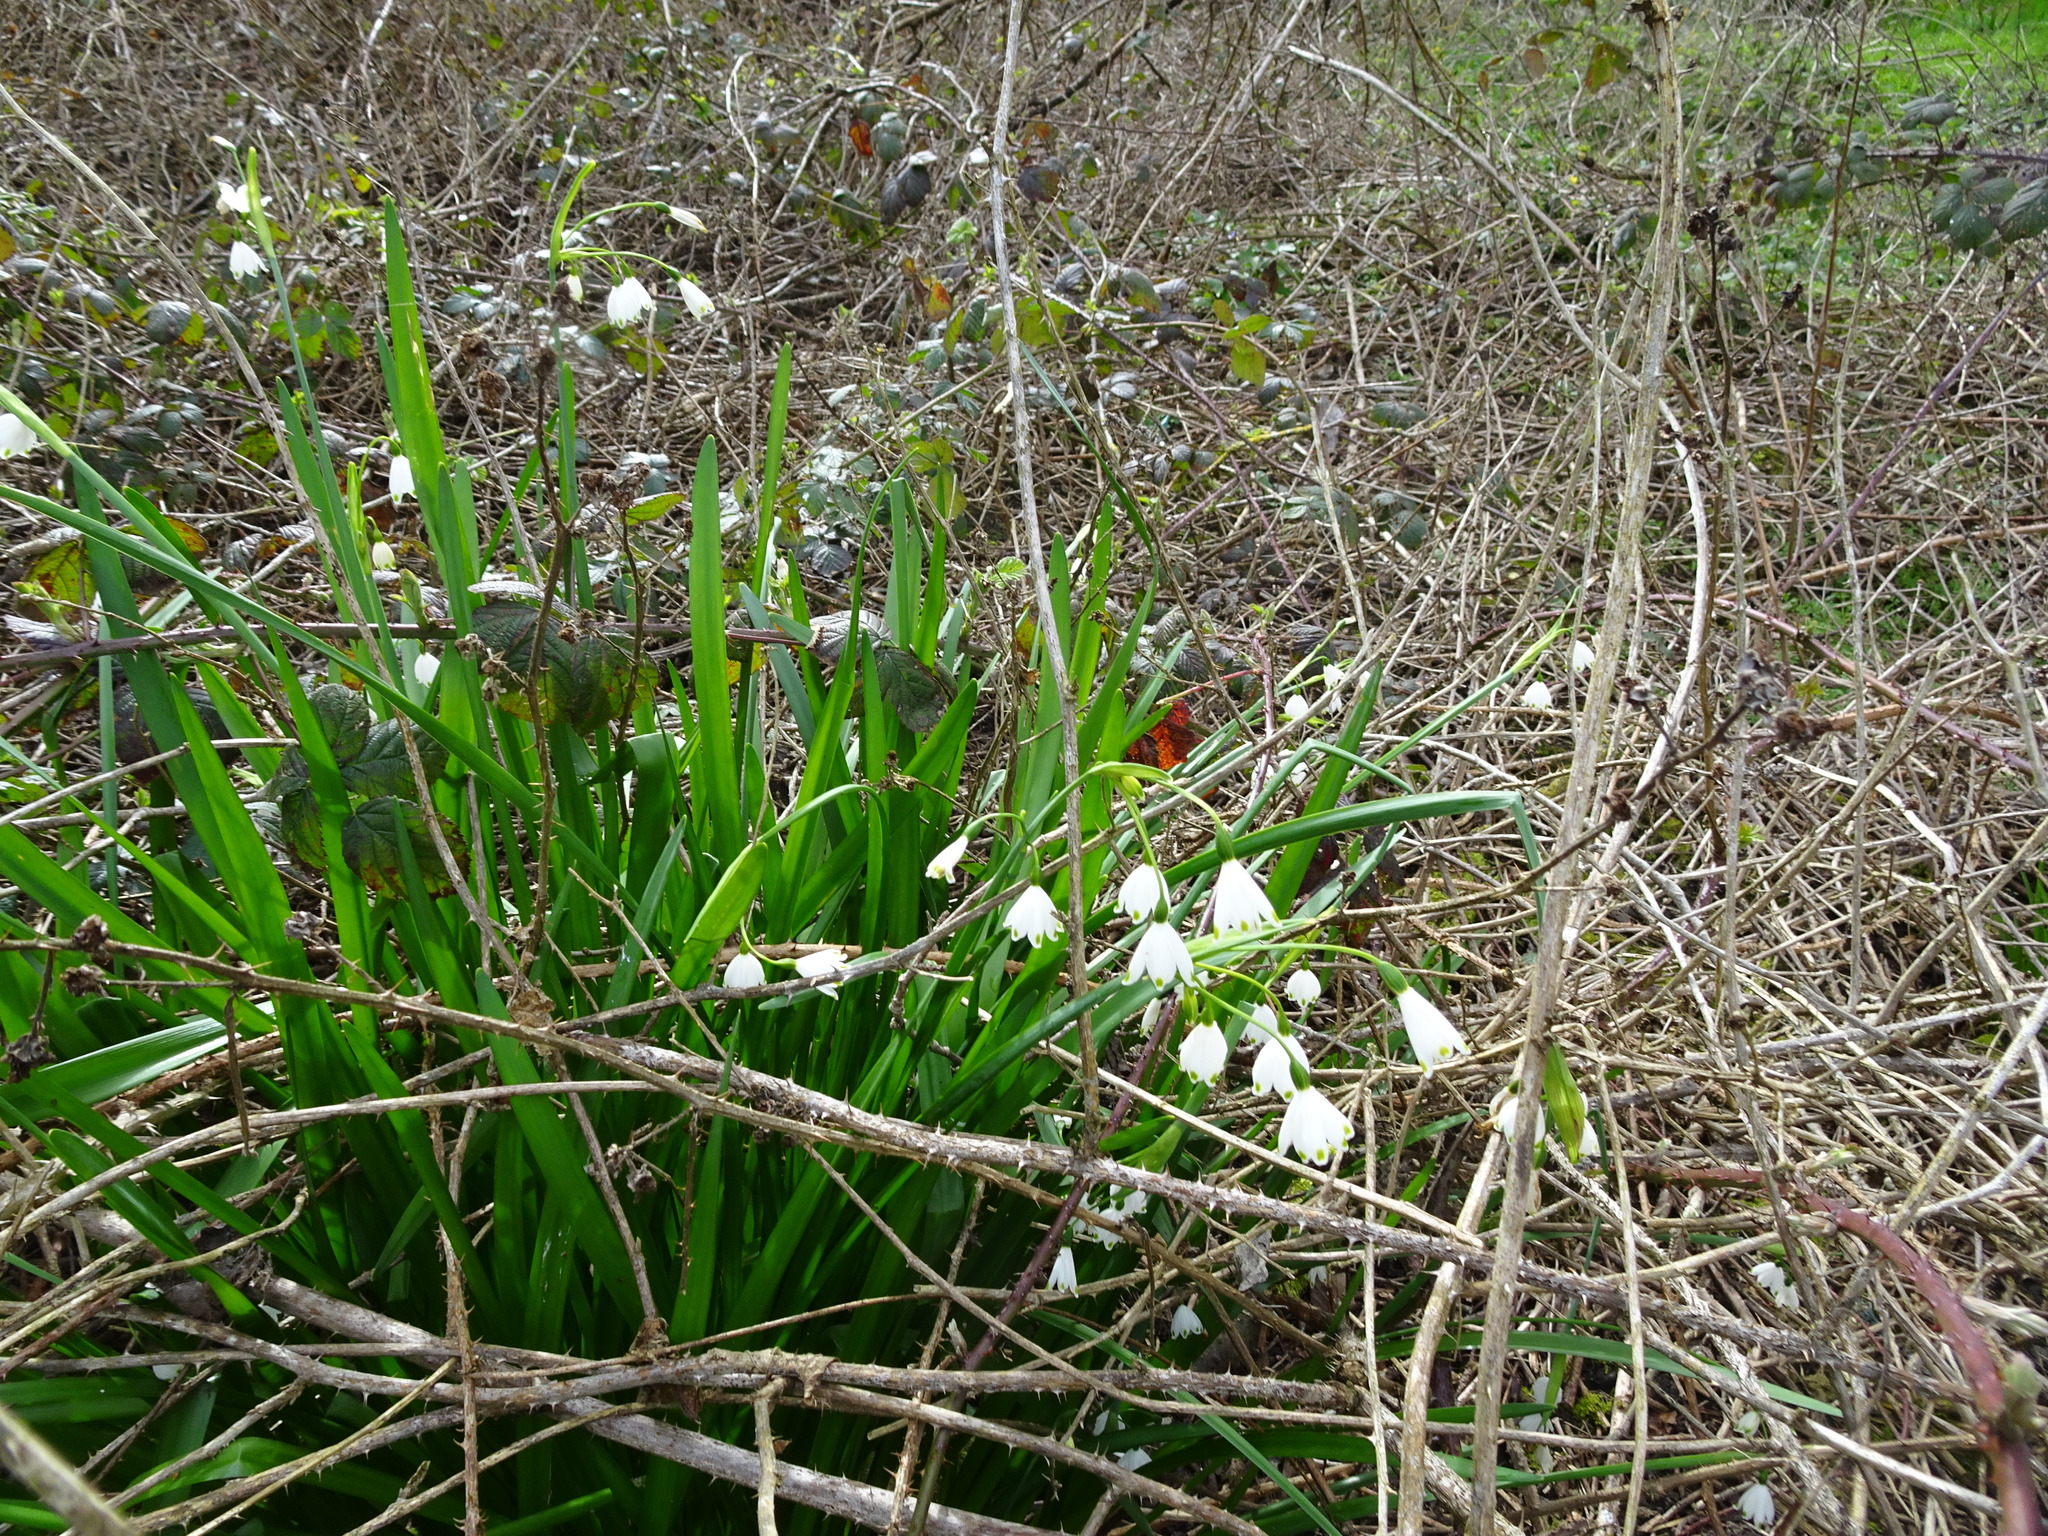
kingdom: Plantae
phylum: Tracheophyta
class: Liliopsida
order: Asparagales
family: Amaryllidaceae
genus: Leucojum
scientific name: Leucojum aestivum
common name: Summer snowflake
